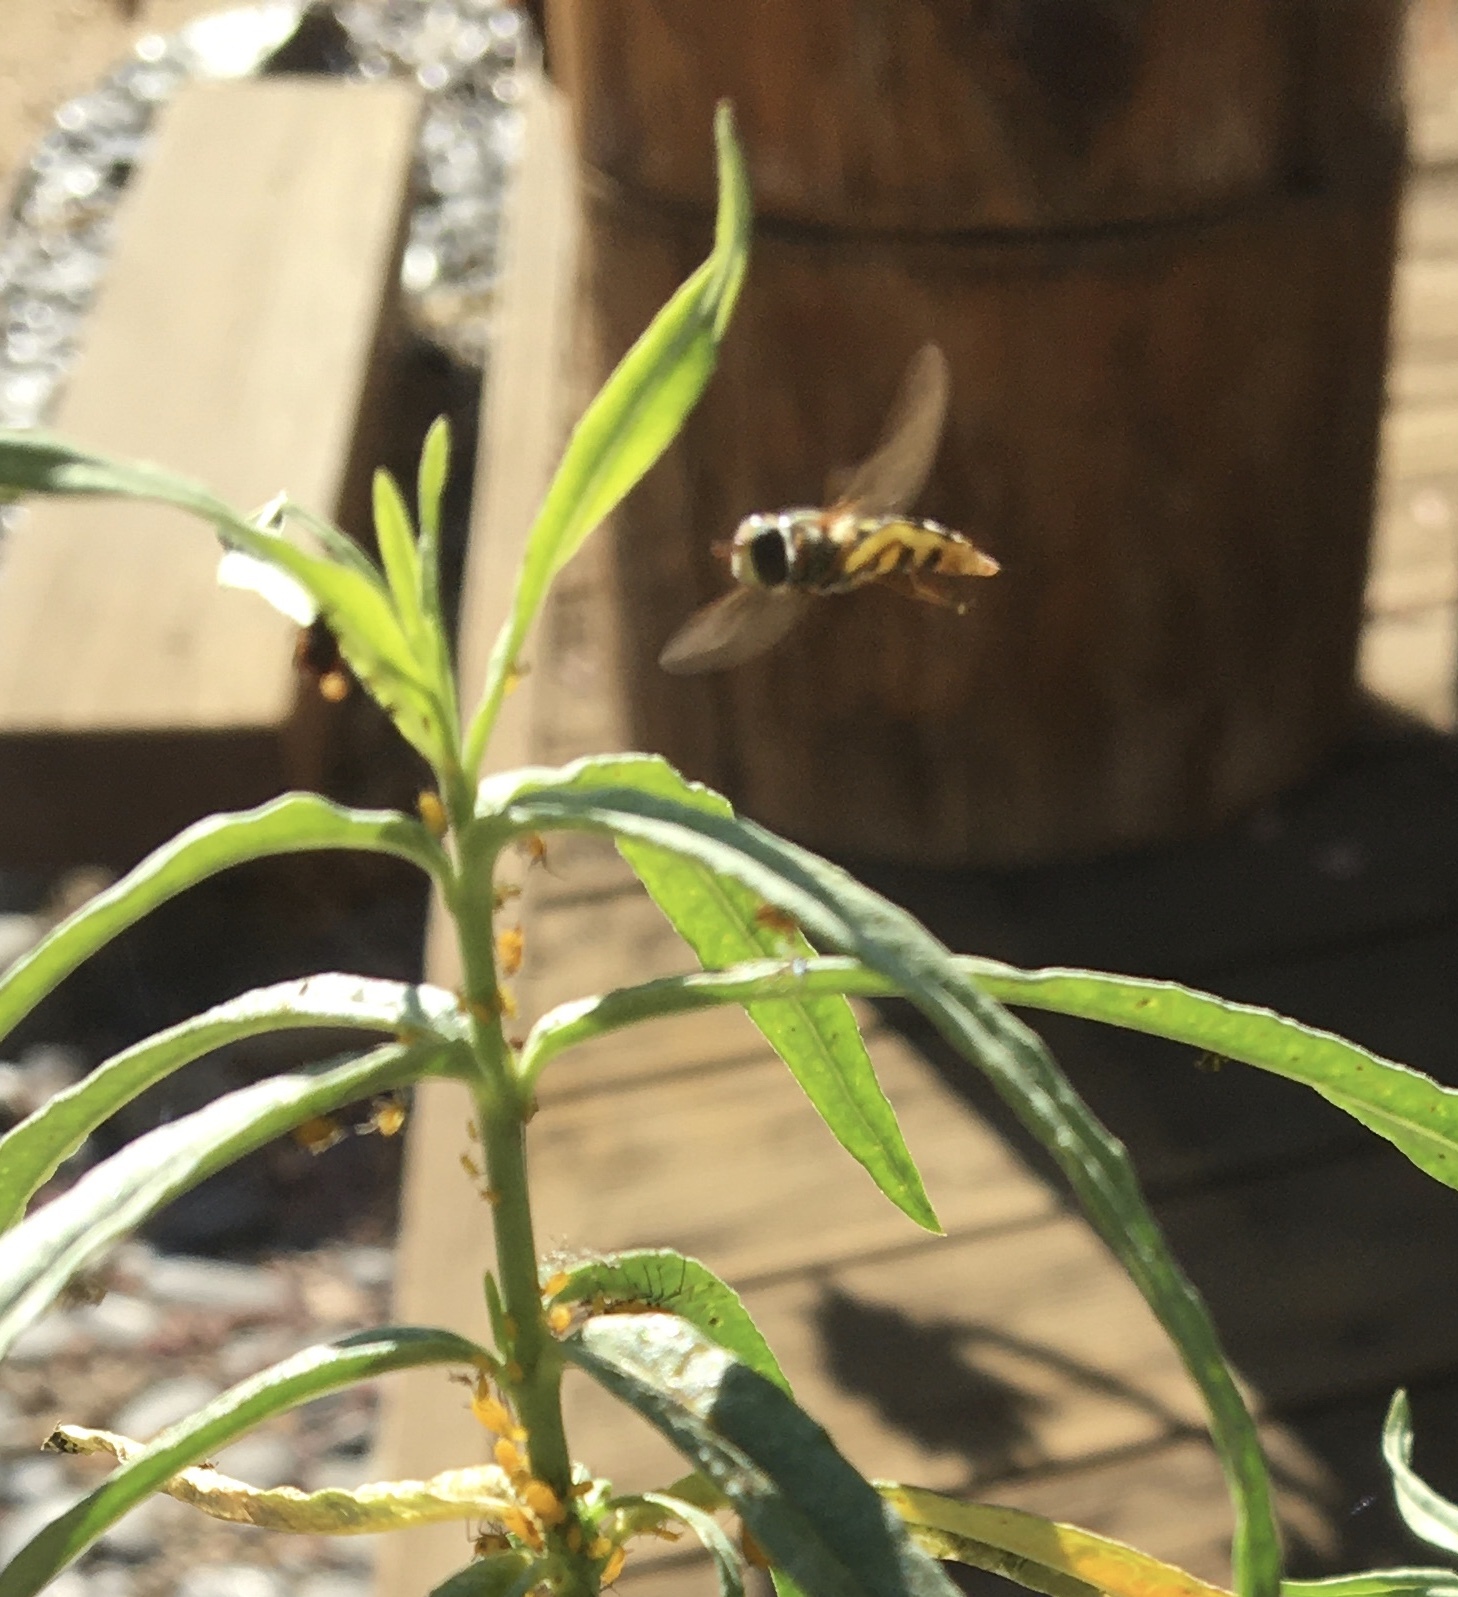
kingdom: Animalia
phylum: Arthropoda
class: Insecta
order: Diptera
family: Syrphidae
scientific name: Syrphidae
